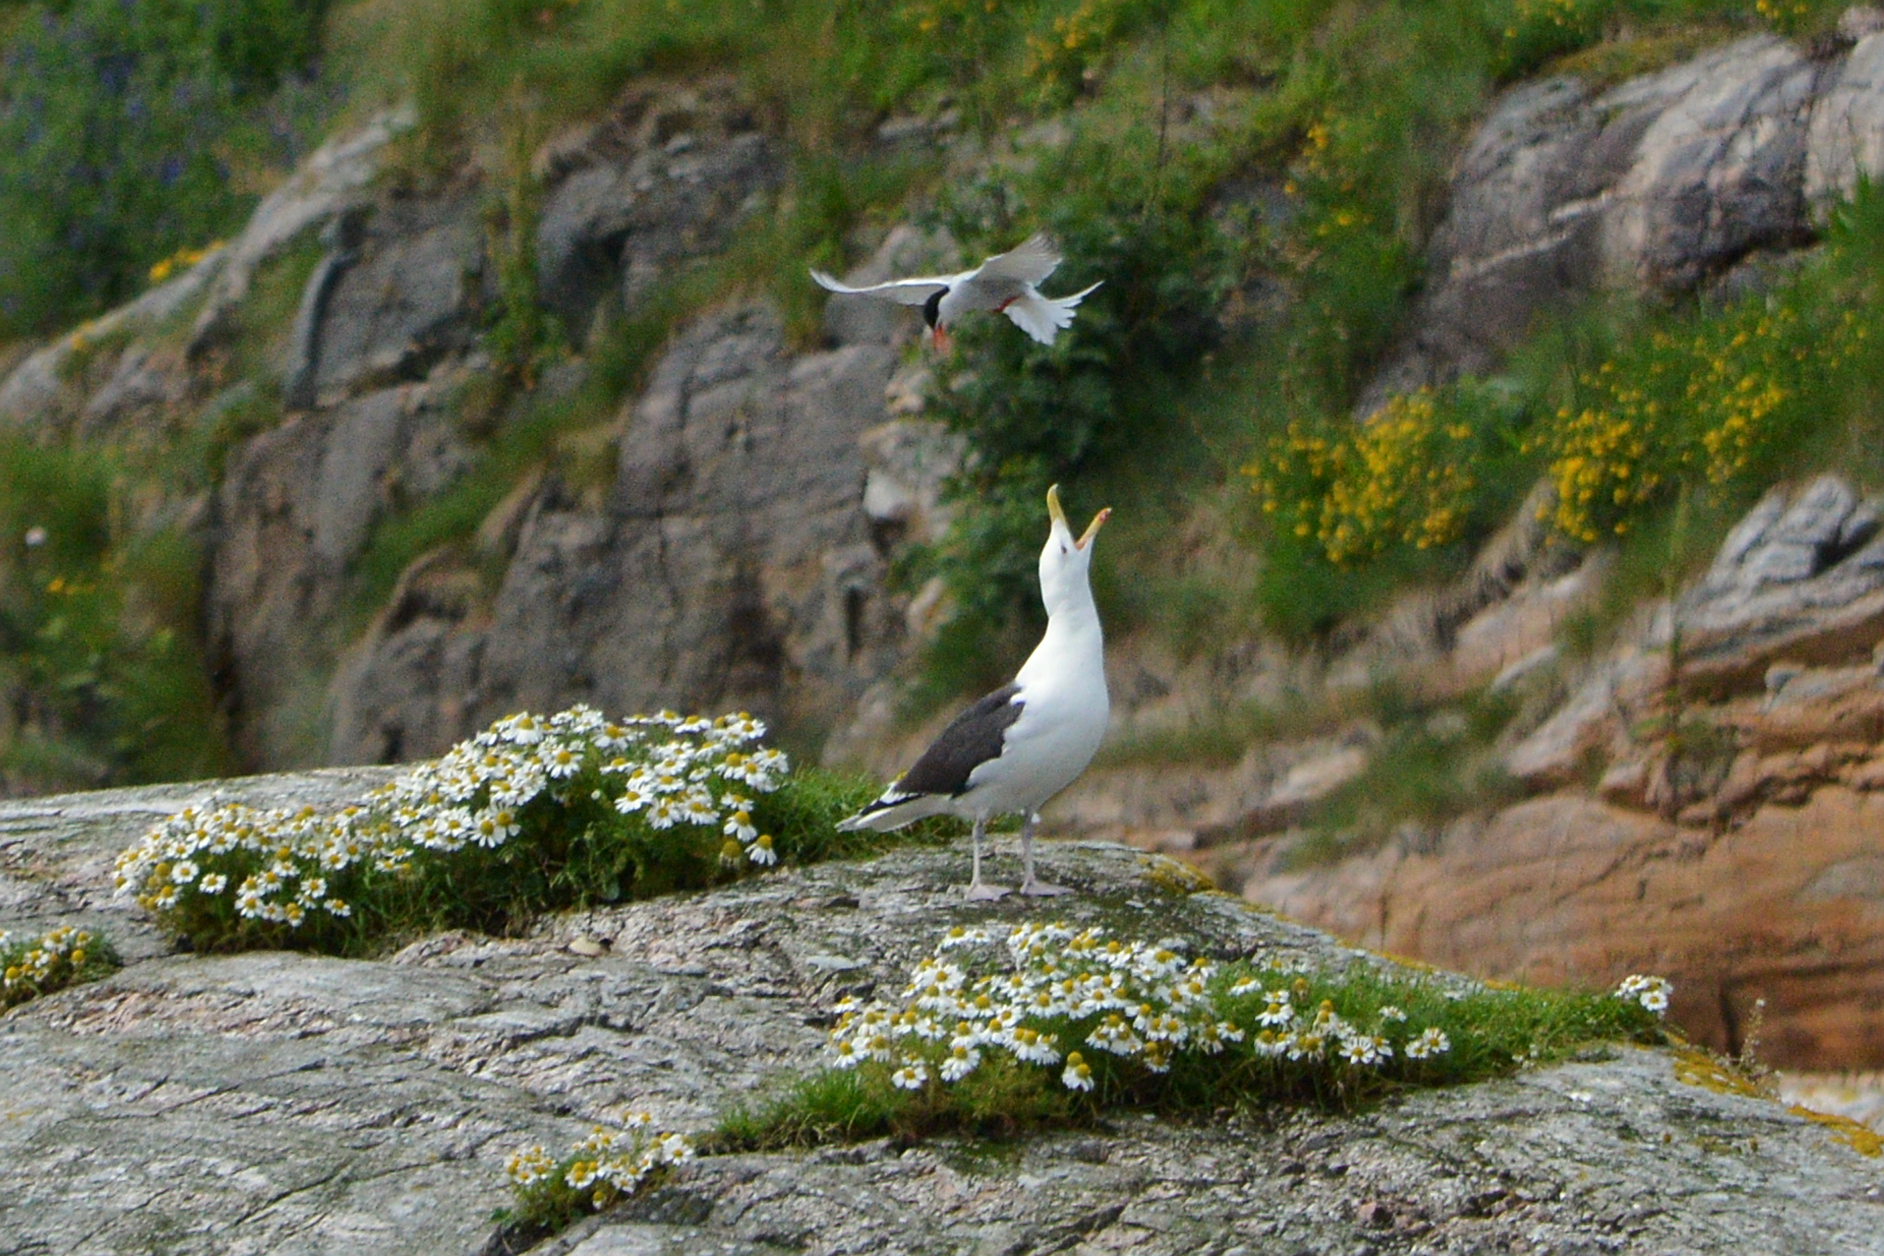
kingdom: Animalia
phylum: Chordata
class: Aves
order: Charadriiformes
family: Laridae
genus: Larus
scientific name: Larus marinus
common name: Great black-backed gull
